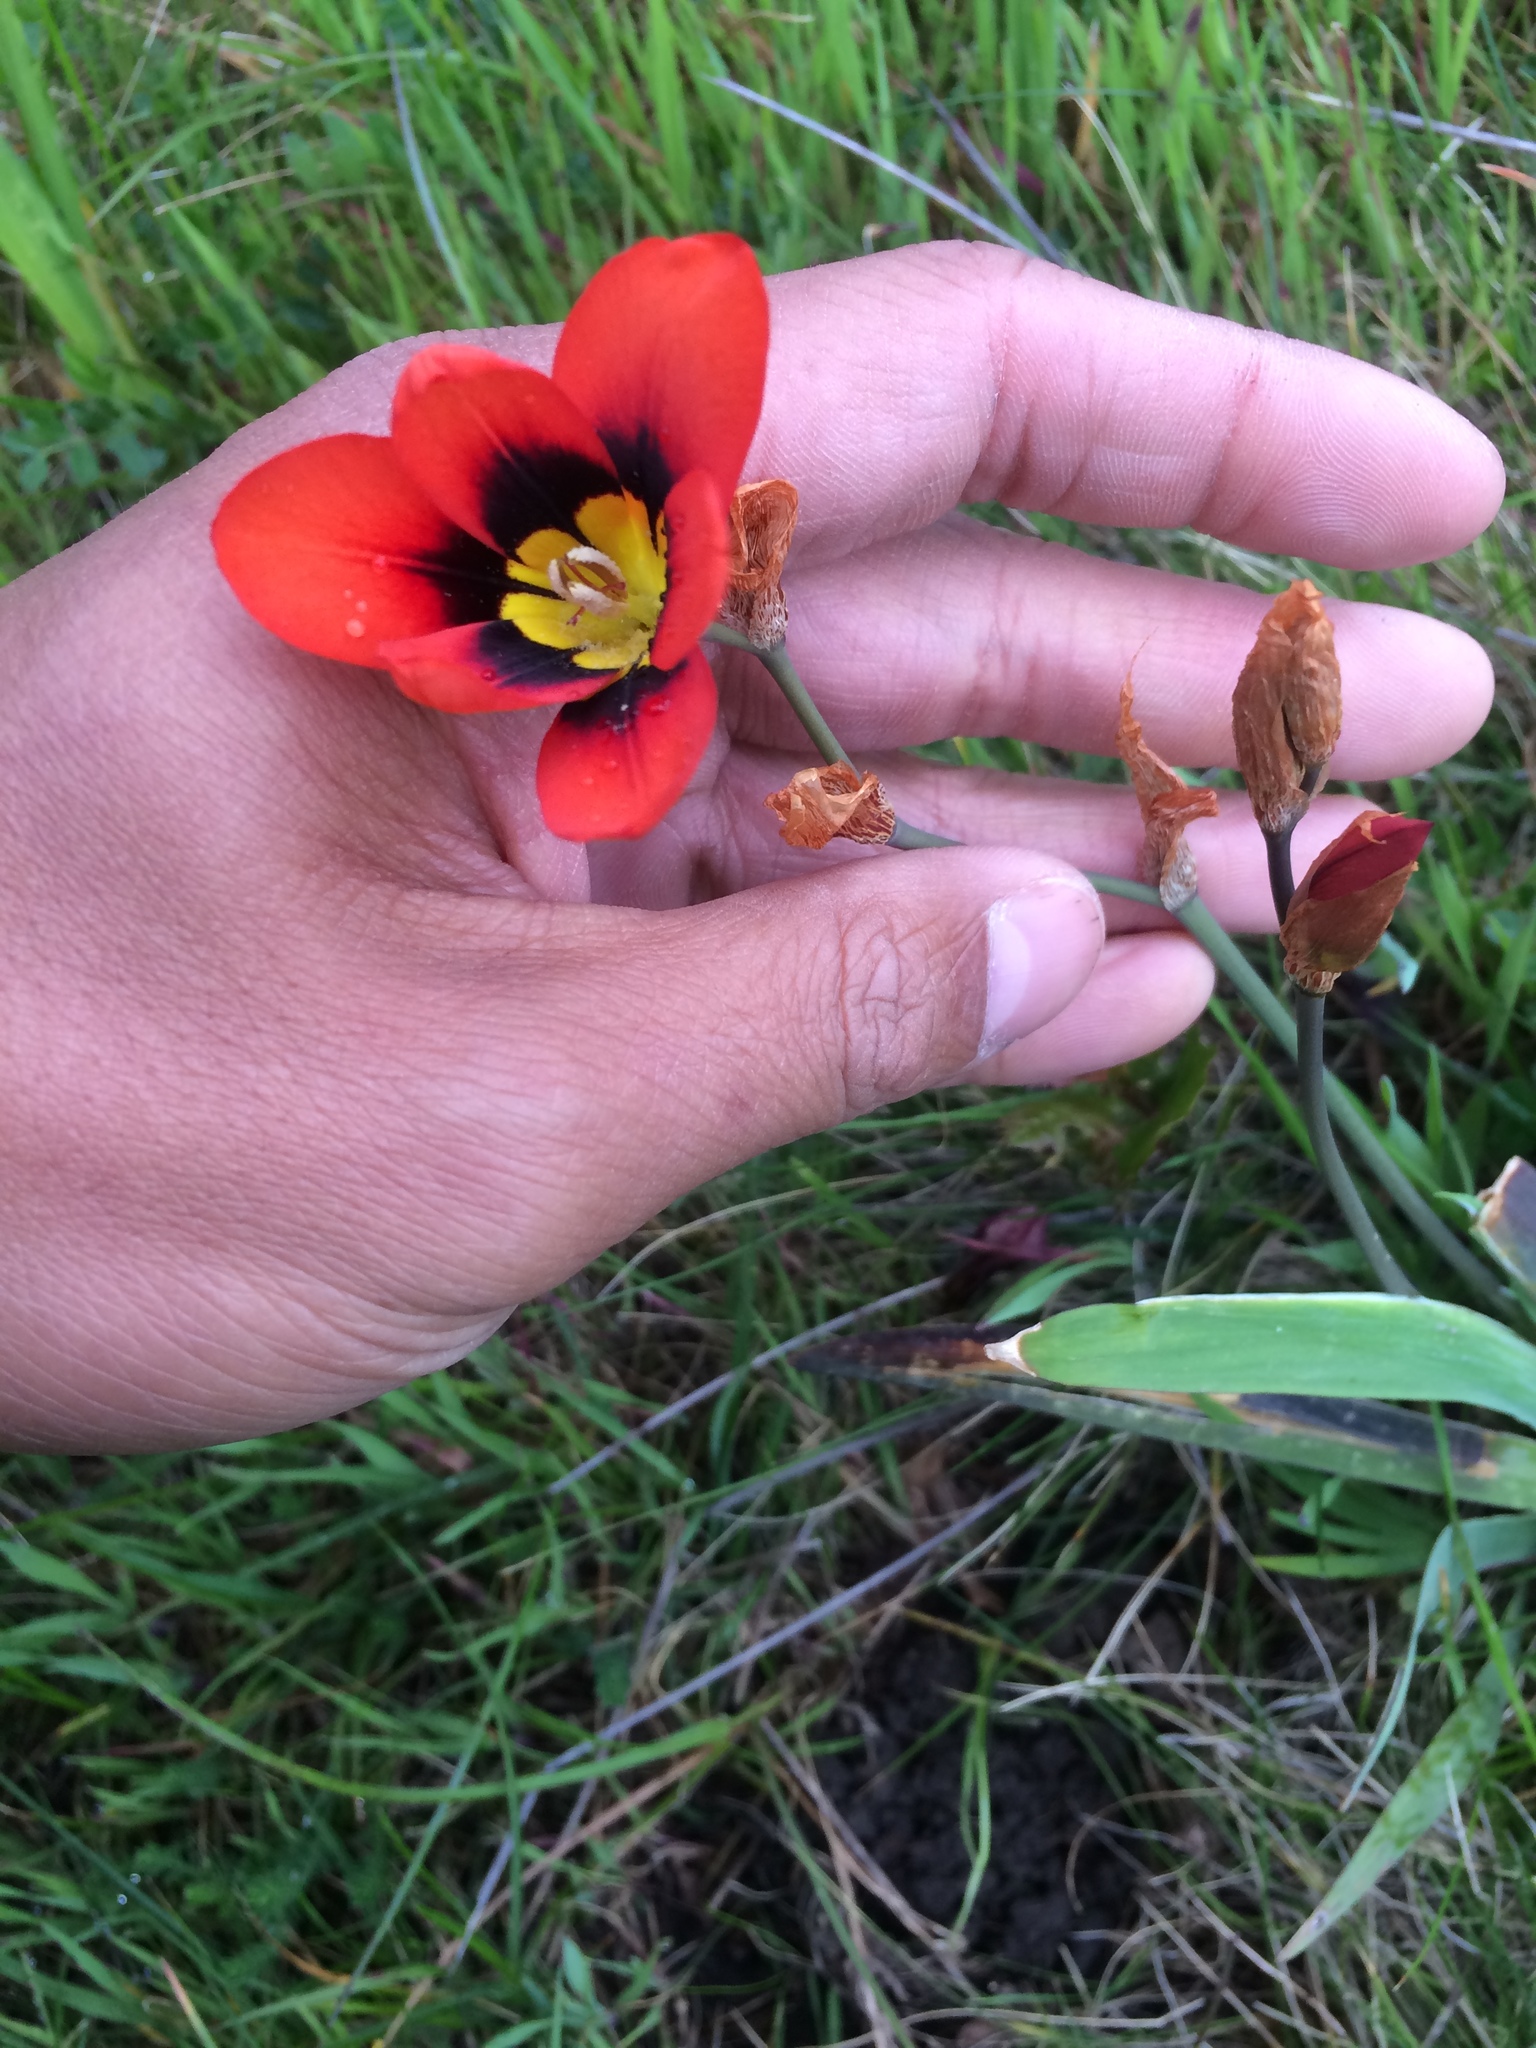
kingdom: Plantae
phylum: Tracheophyta
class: Liliopsida
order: Asparagales
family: Iridaceae
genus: Sparaxis
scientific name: Sparaxis tricolor
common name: Wandflower
